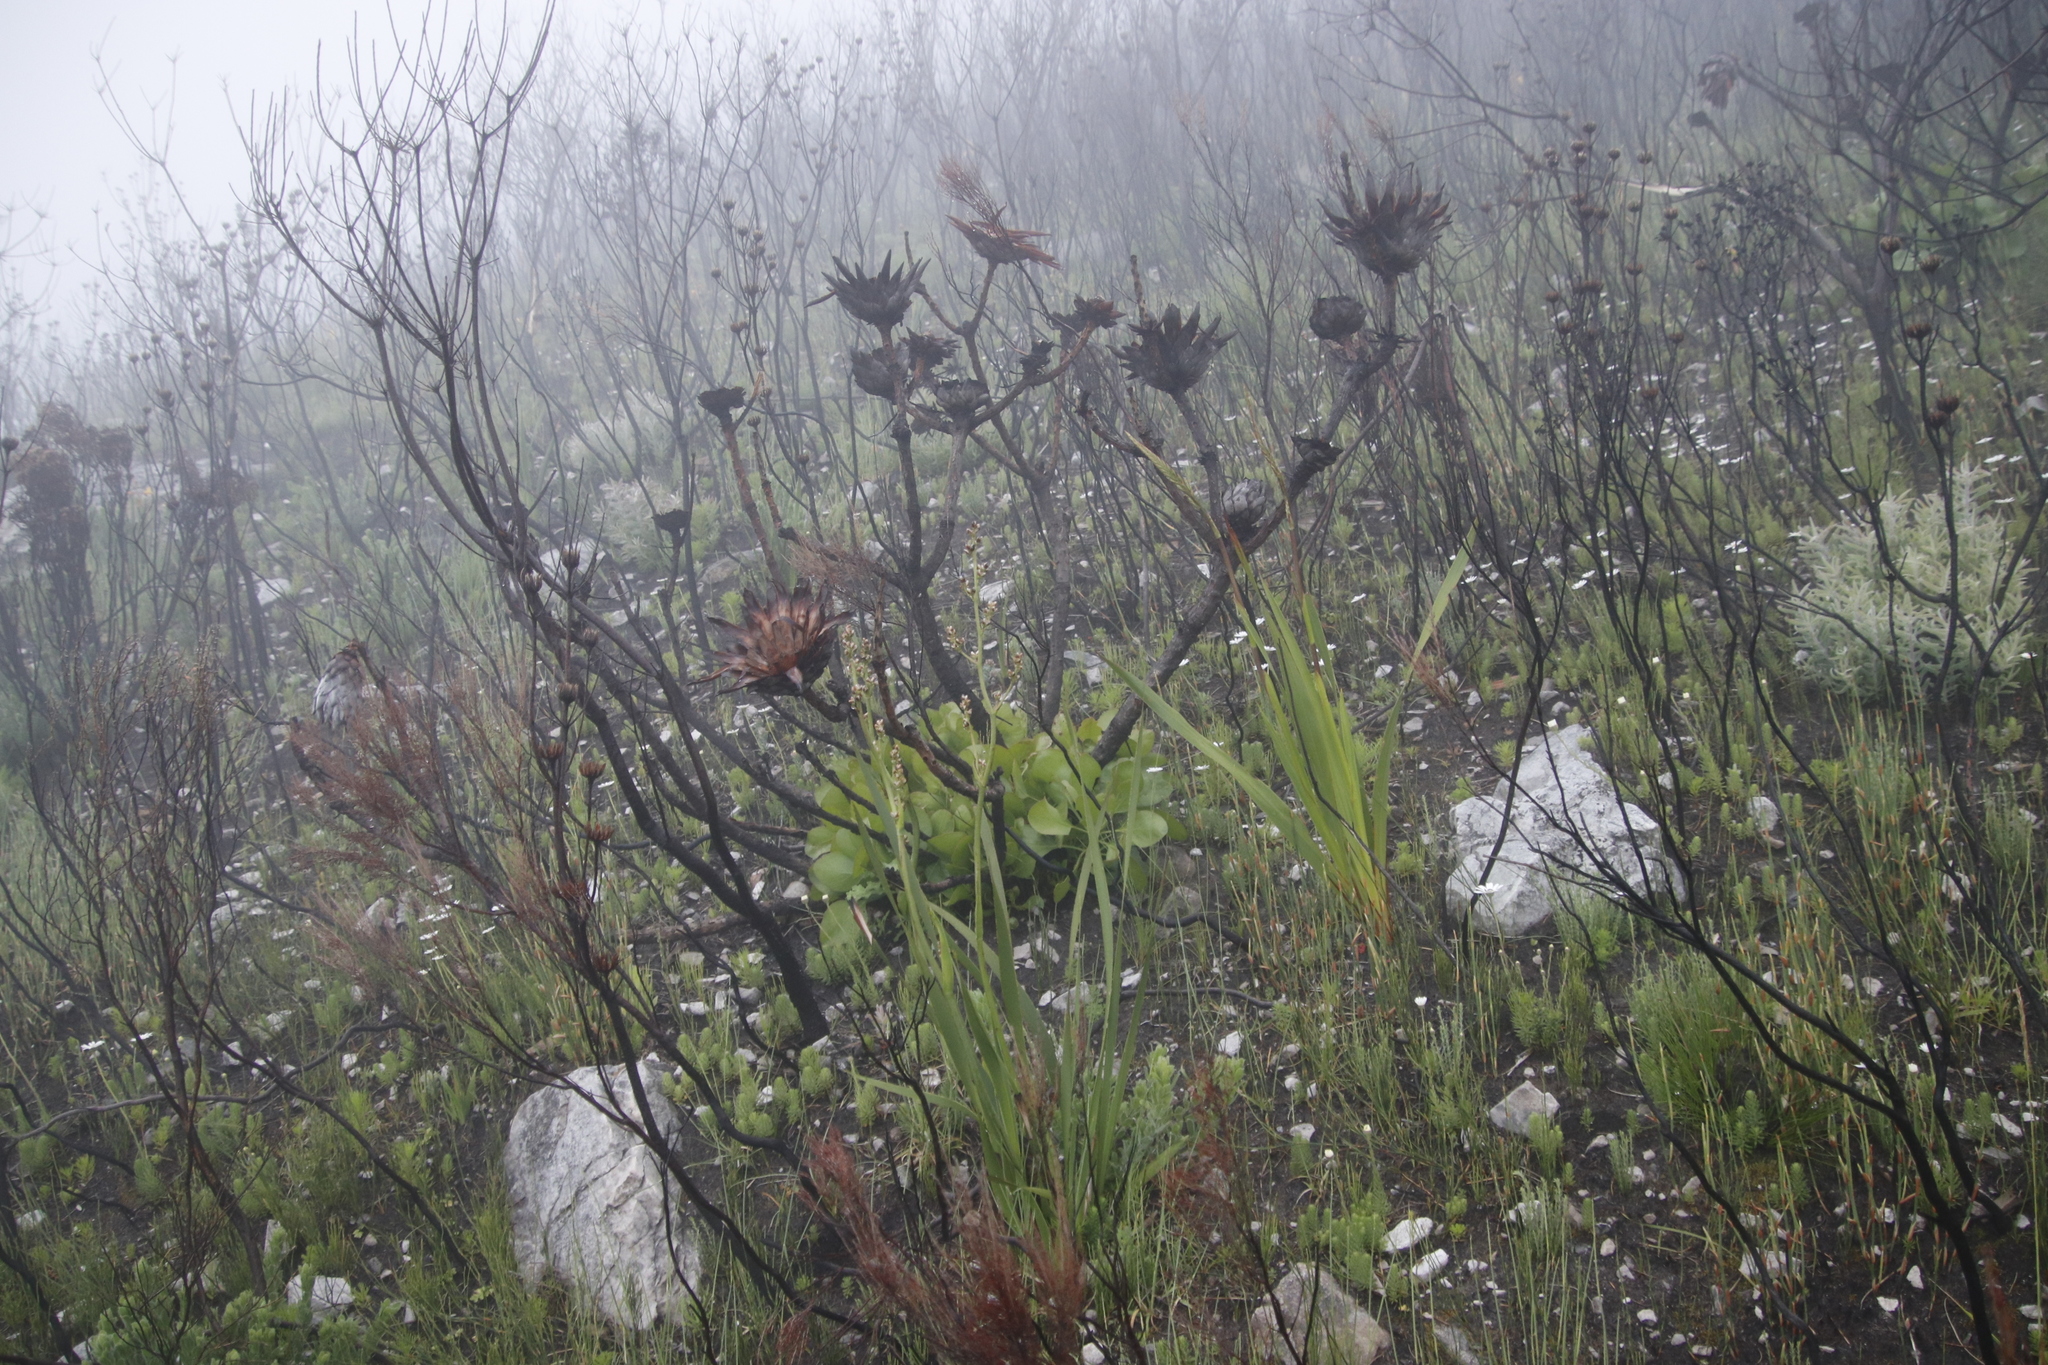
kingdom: Plantae
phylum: Tracheophyta
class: Magnoliopsida
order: Proteales
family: Proteaceae
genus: Protea
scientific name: Protea cynaroides
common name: King protea
